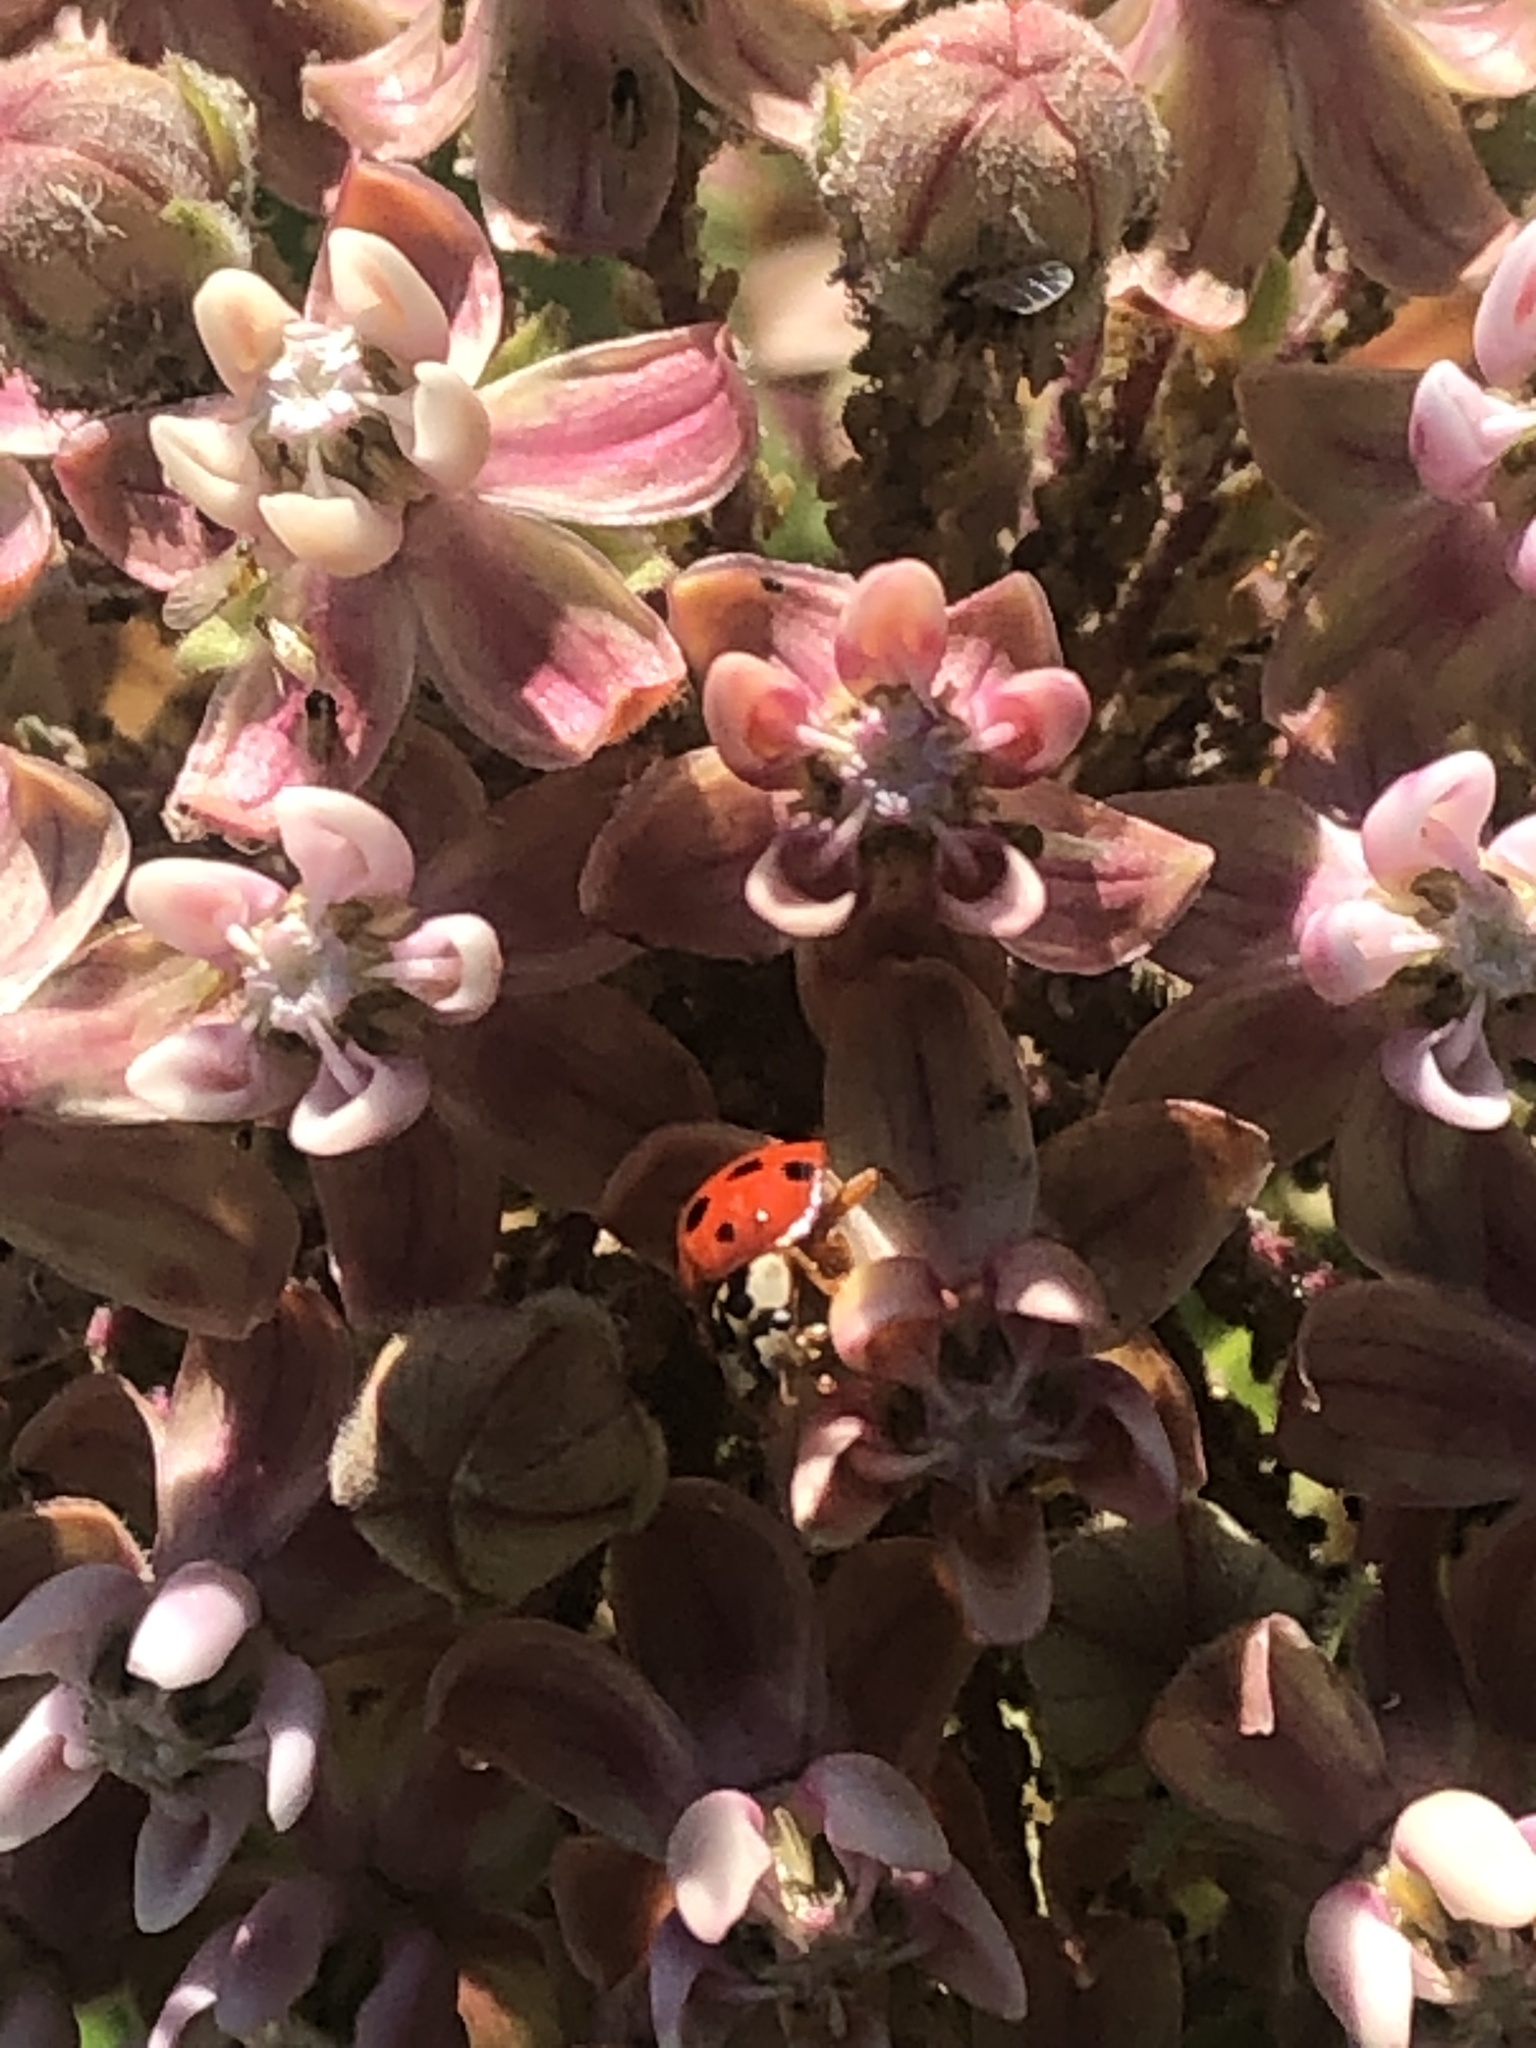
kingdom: Animalia
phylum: Arthropoda
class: Insecta
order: Coleoptera
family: Coccinellidae
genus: Harmonia
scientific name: Harmonia axyridis
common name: Harlequin ladybird
